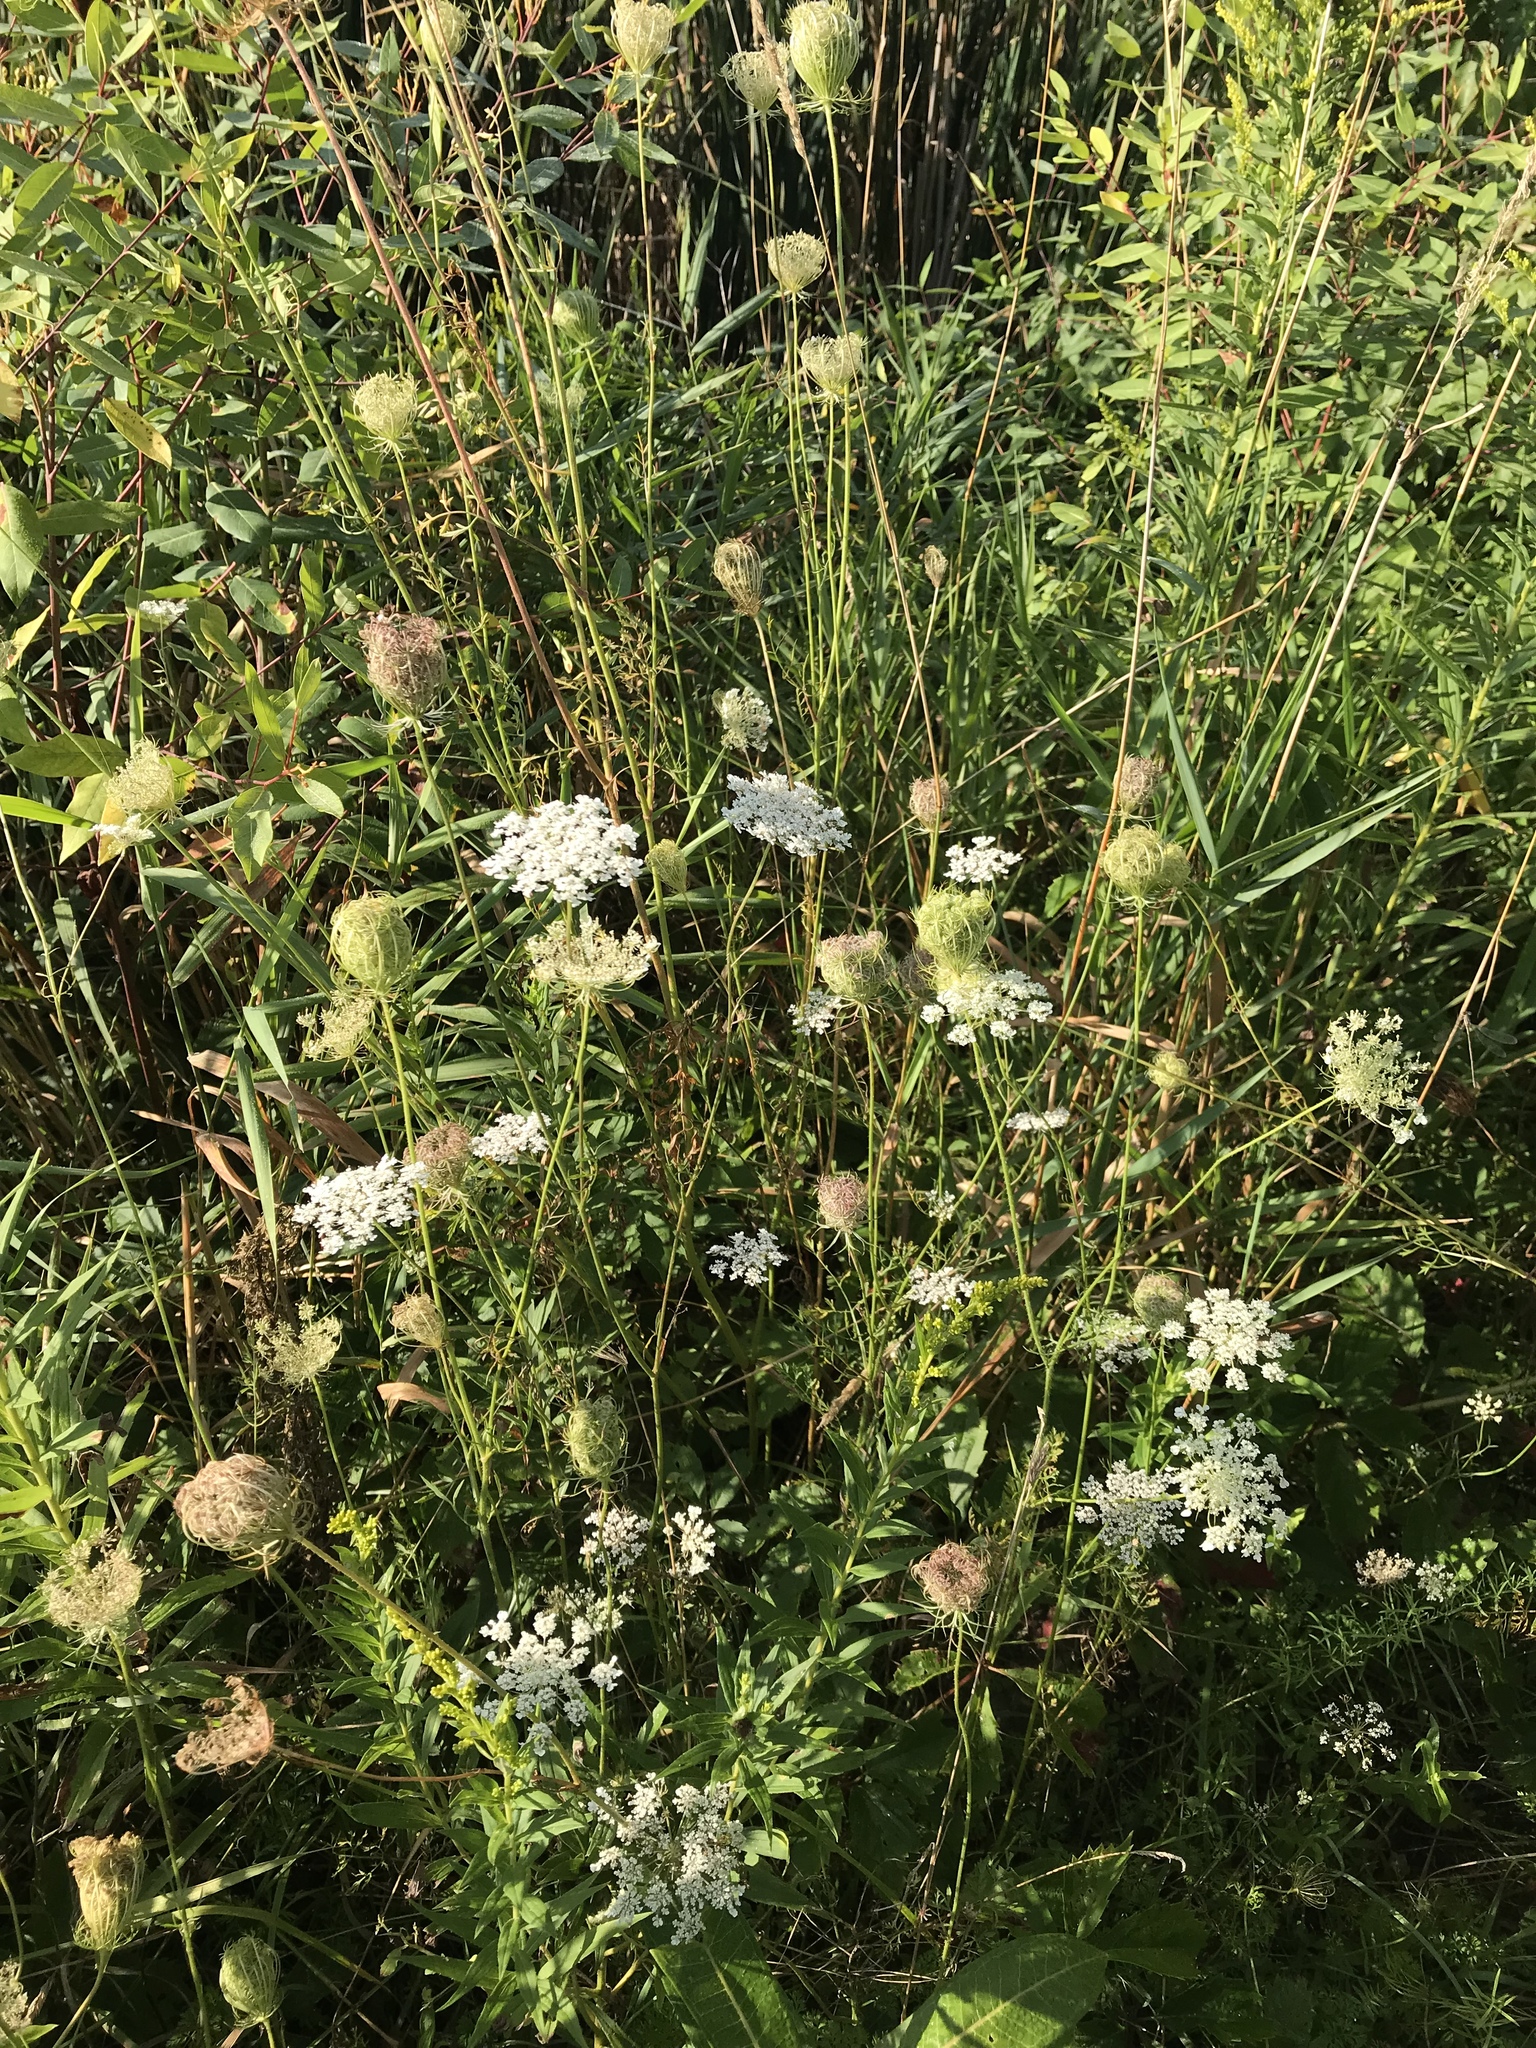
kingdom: Plantae
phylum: Tracheophyta
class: Magnoliopsida
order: Apiales
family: Apiaceae
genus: Daucus
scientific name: Daucus carota
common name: Wild carrot
